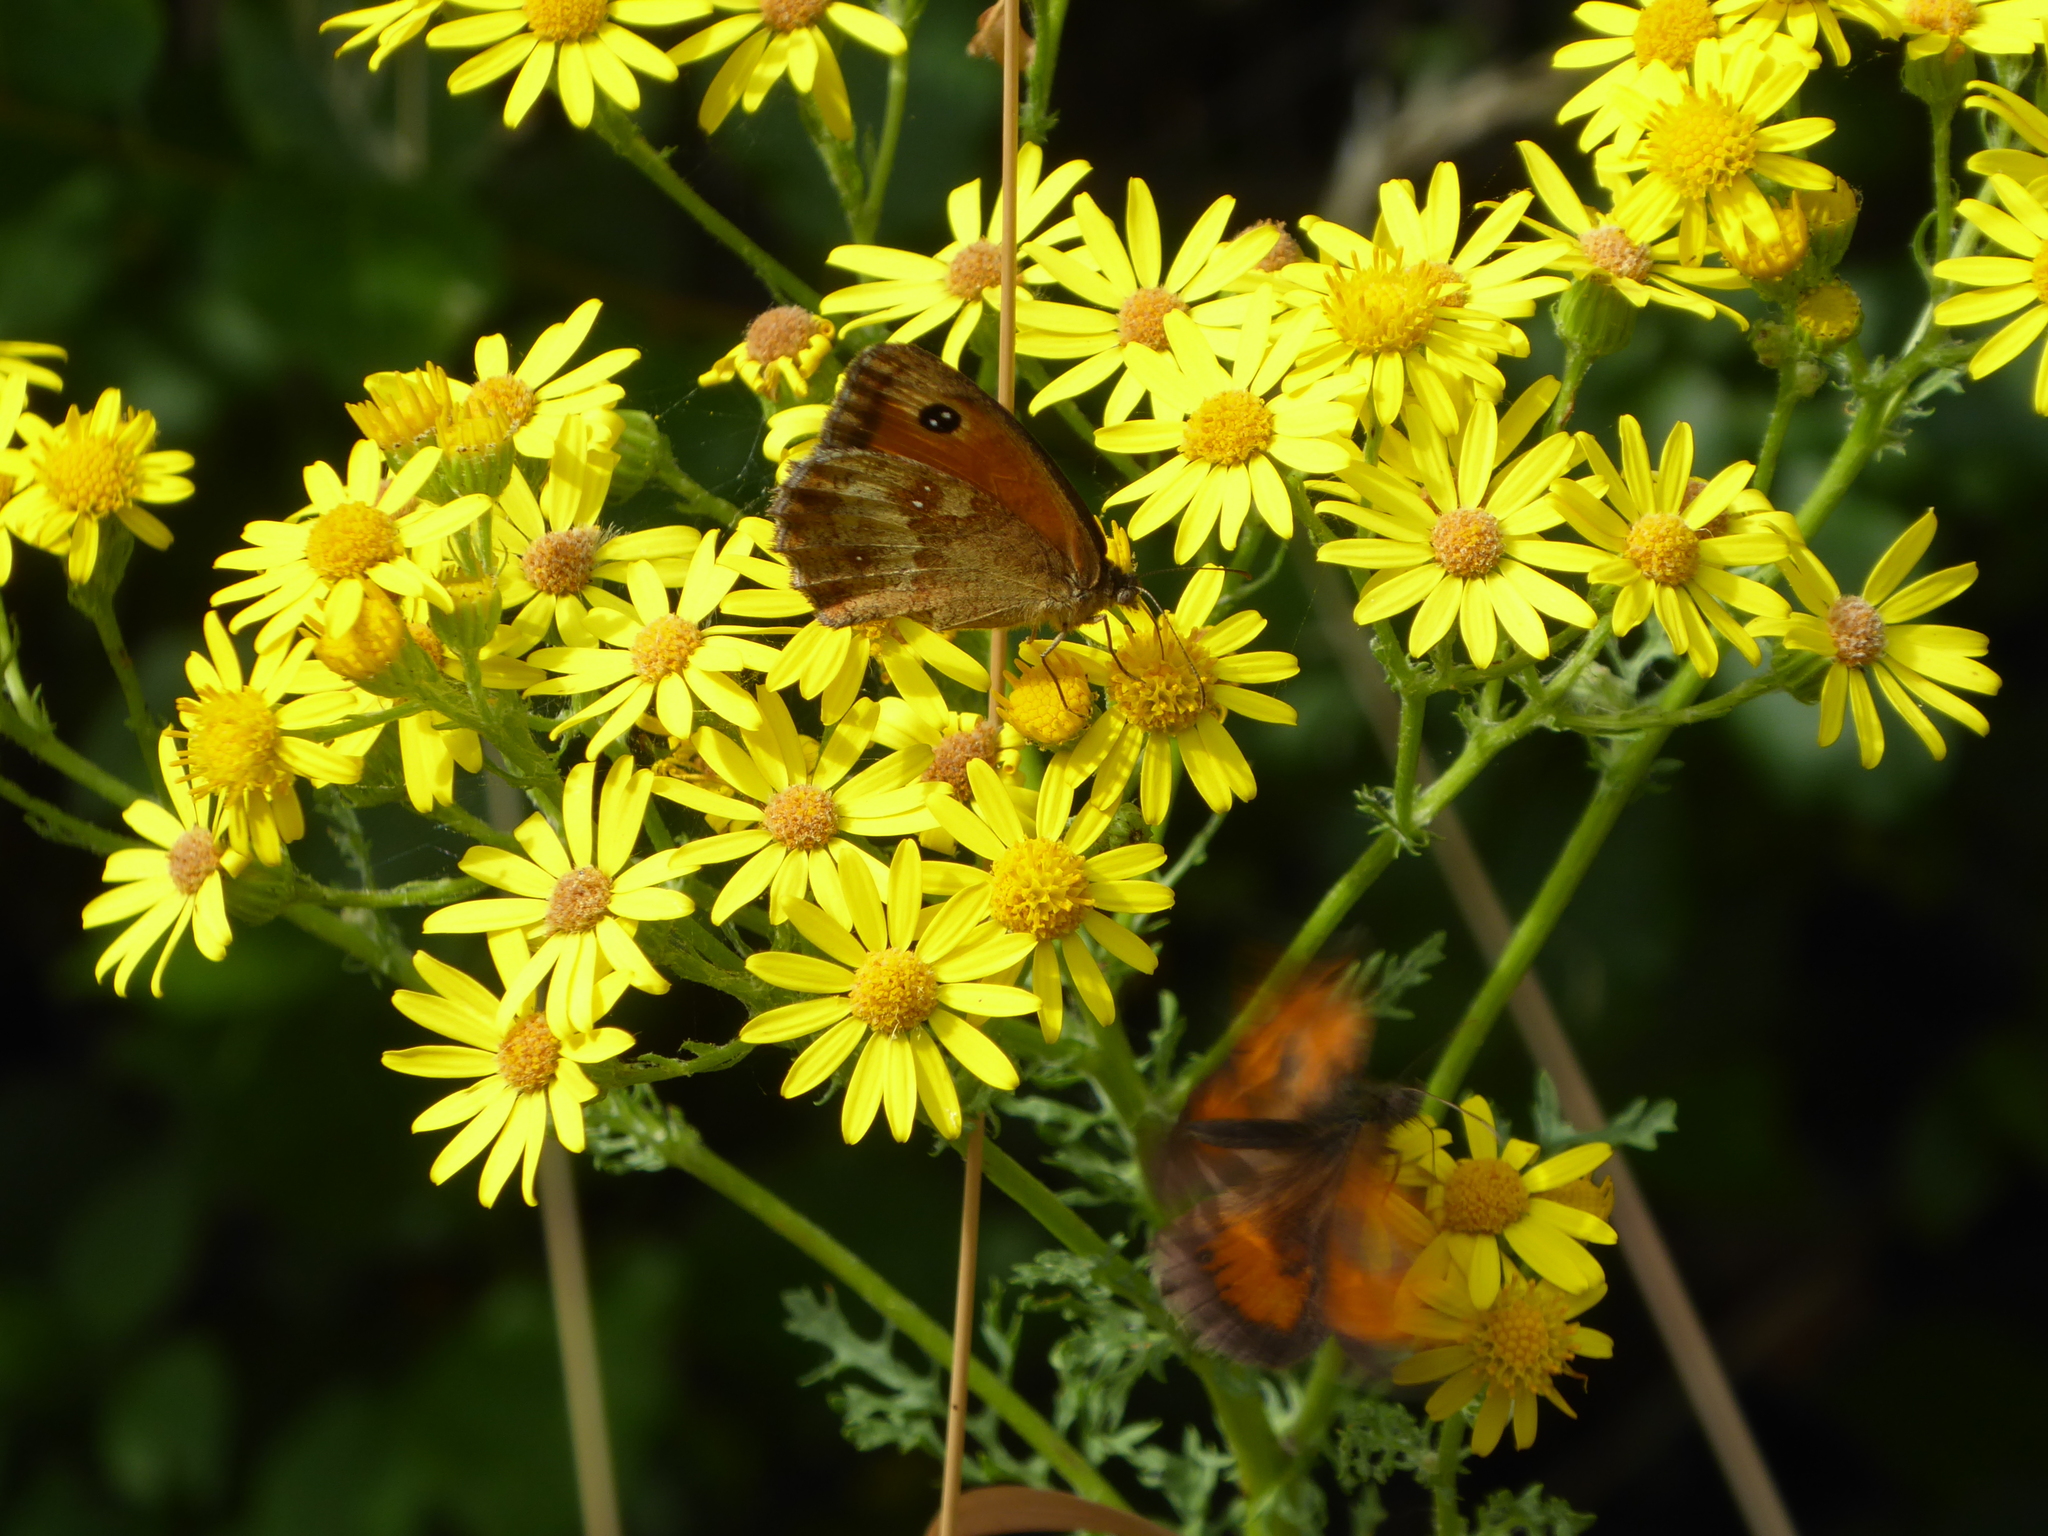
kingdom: Animalia
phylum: Arthropoda
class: Insecta
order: Lepidoptera
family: Nymphalidae
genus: Pyronia
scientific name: Pyronia tithonus
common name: Gatekeeper
